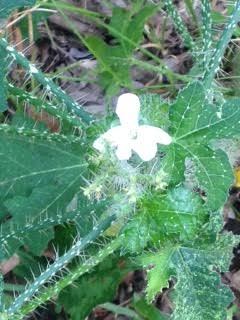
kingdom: Plantae
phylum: Tracheophyta
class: Magnoliopsida
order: Malpighiales
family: Euphorbiaceae
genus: Cnidoscolus
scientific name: Cnidoscolus texanus
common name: Texas bull-nettle
